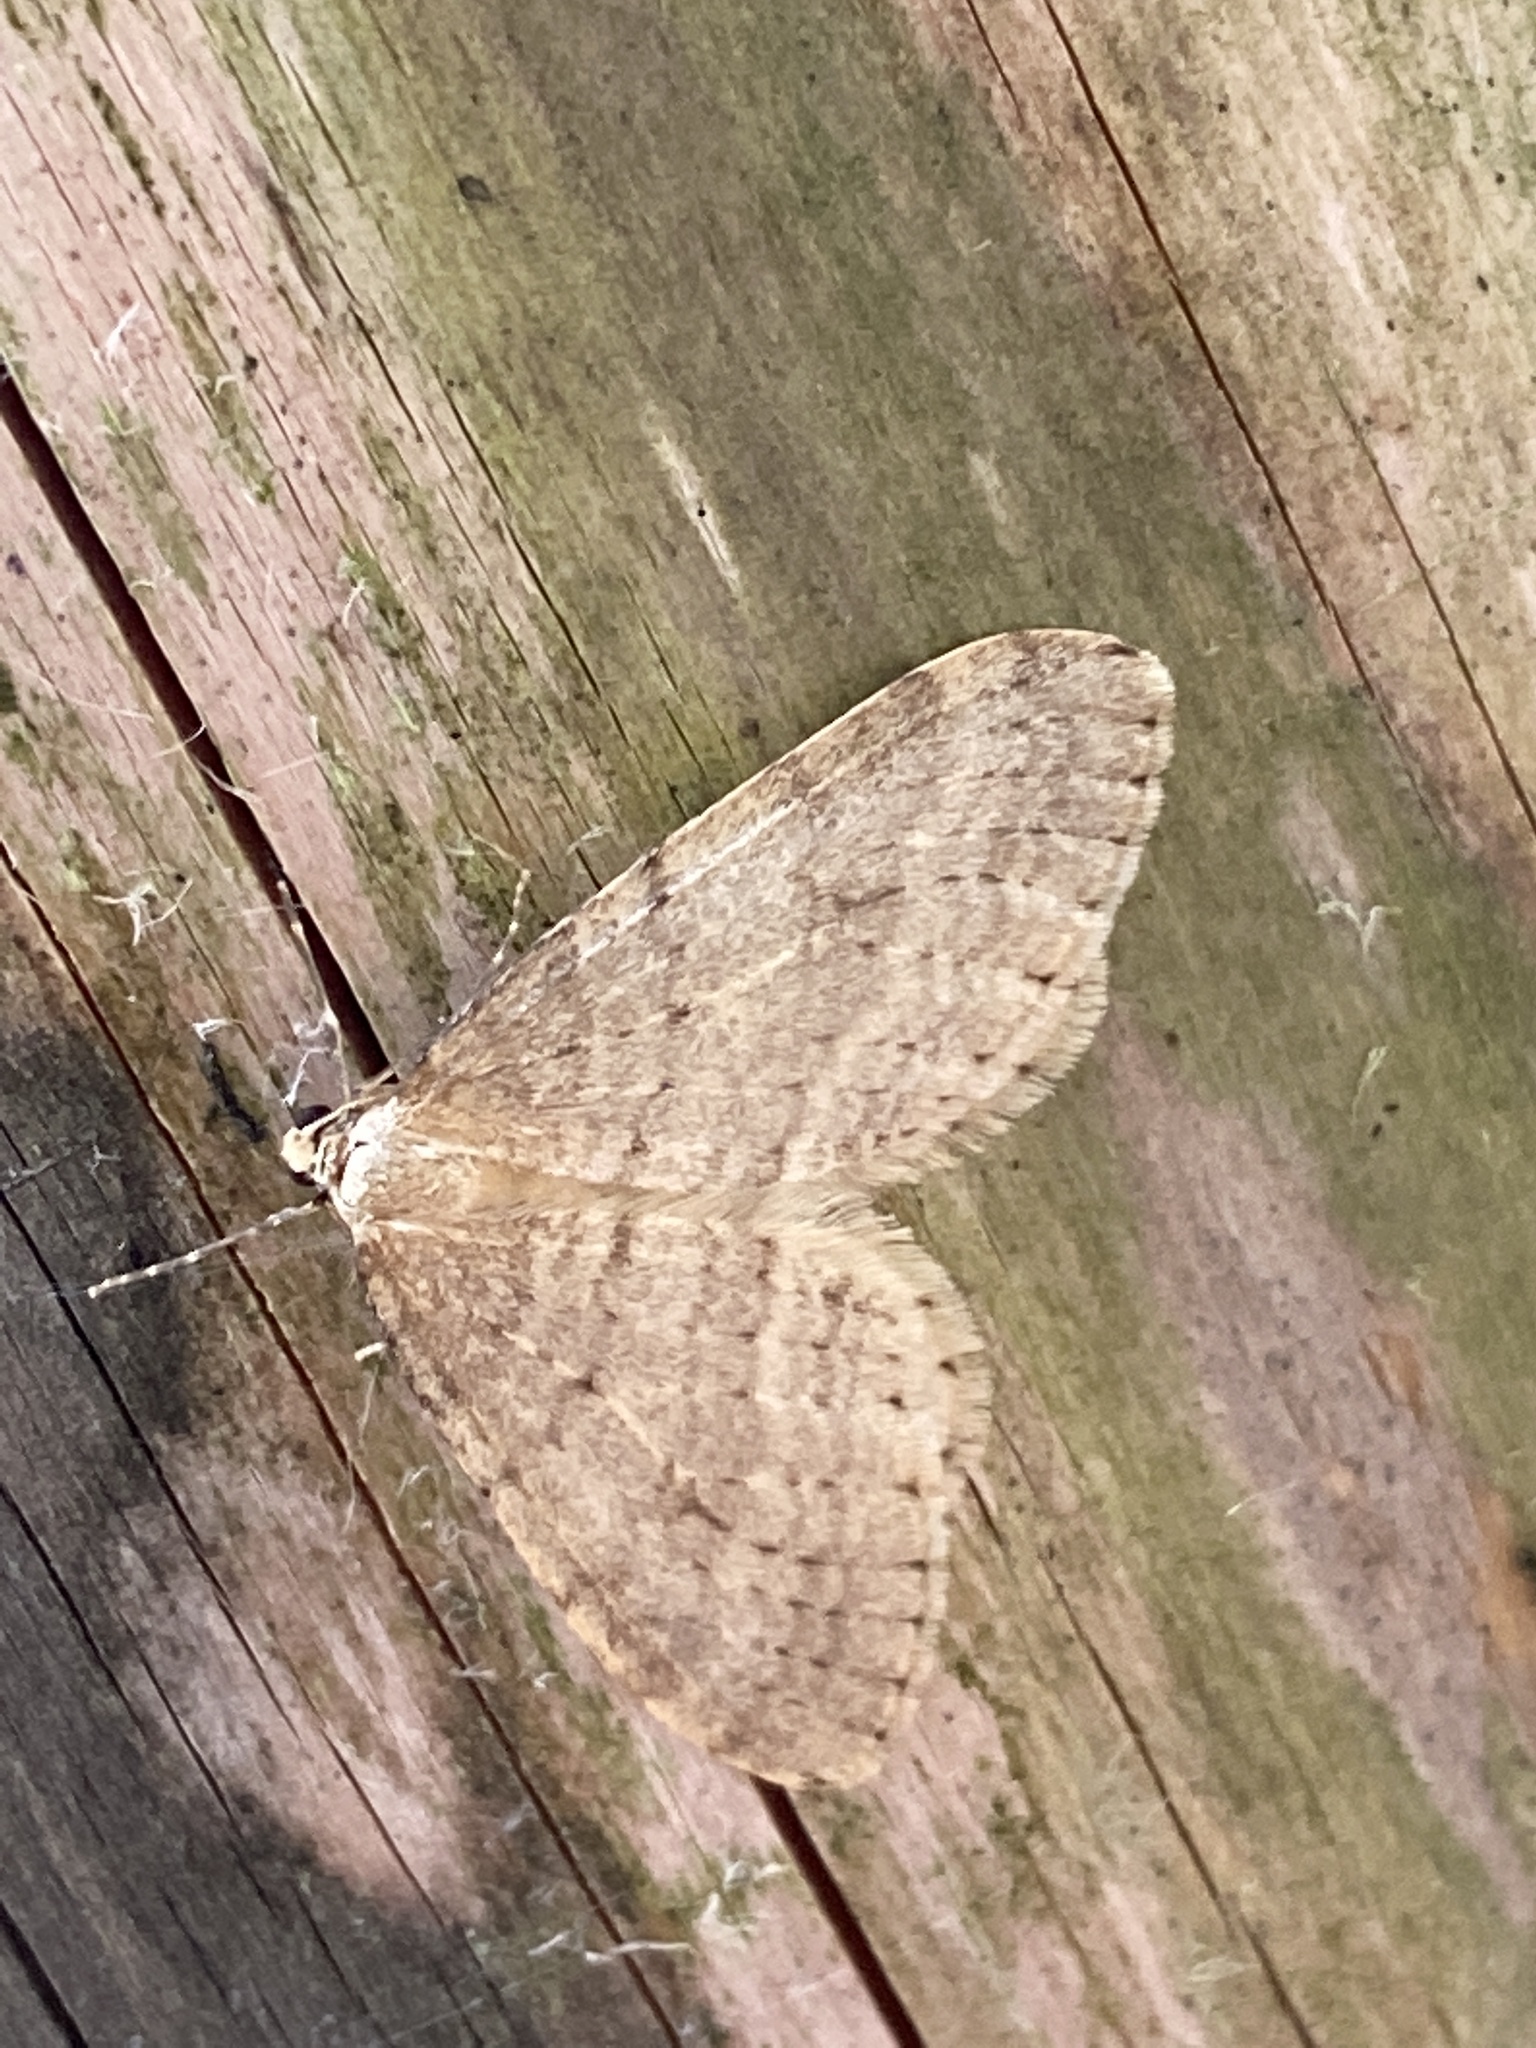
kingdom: Animalia
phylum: Arthropoda
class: Insecta
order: Lepidoptera
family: Geometridae
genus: Operophtera
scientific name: Operophtera brumata
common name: Winter moth
